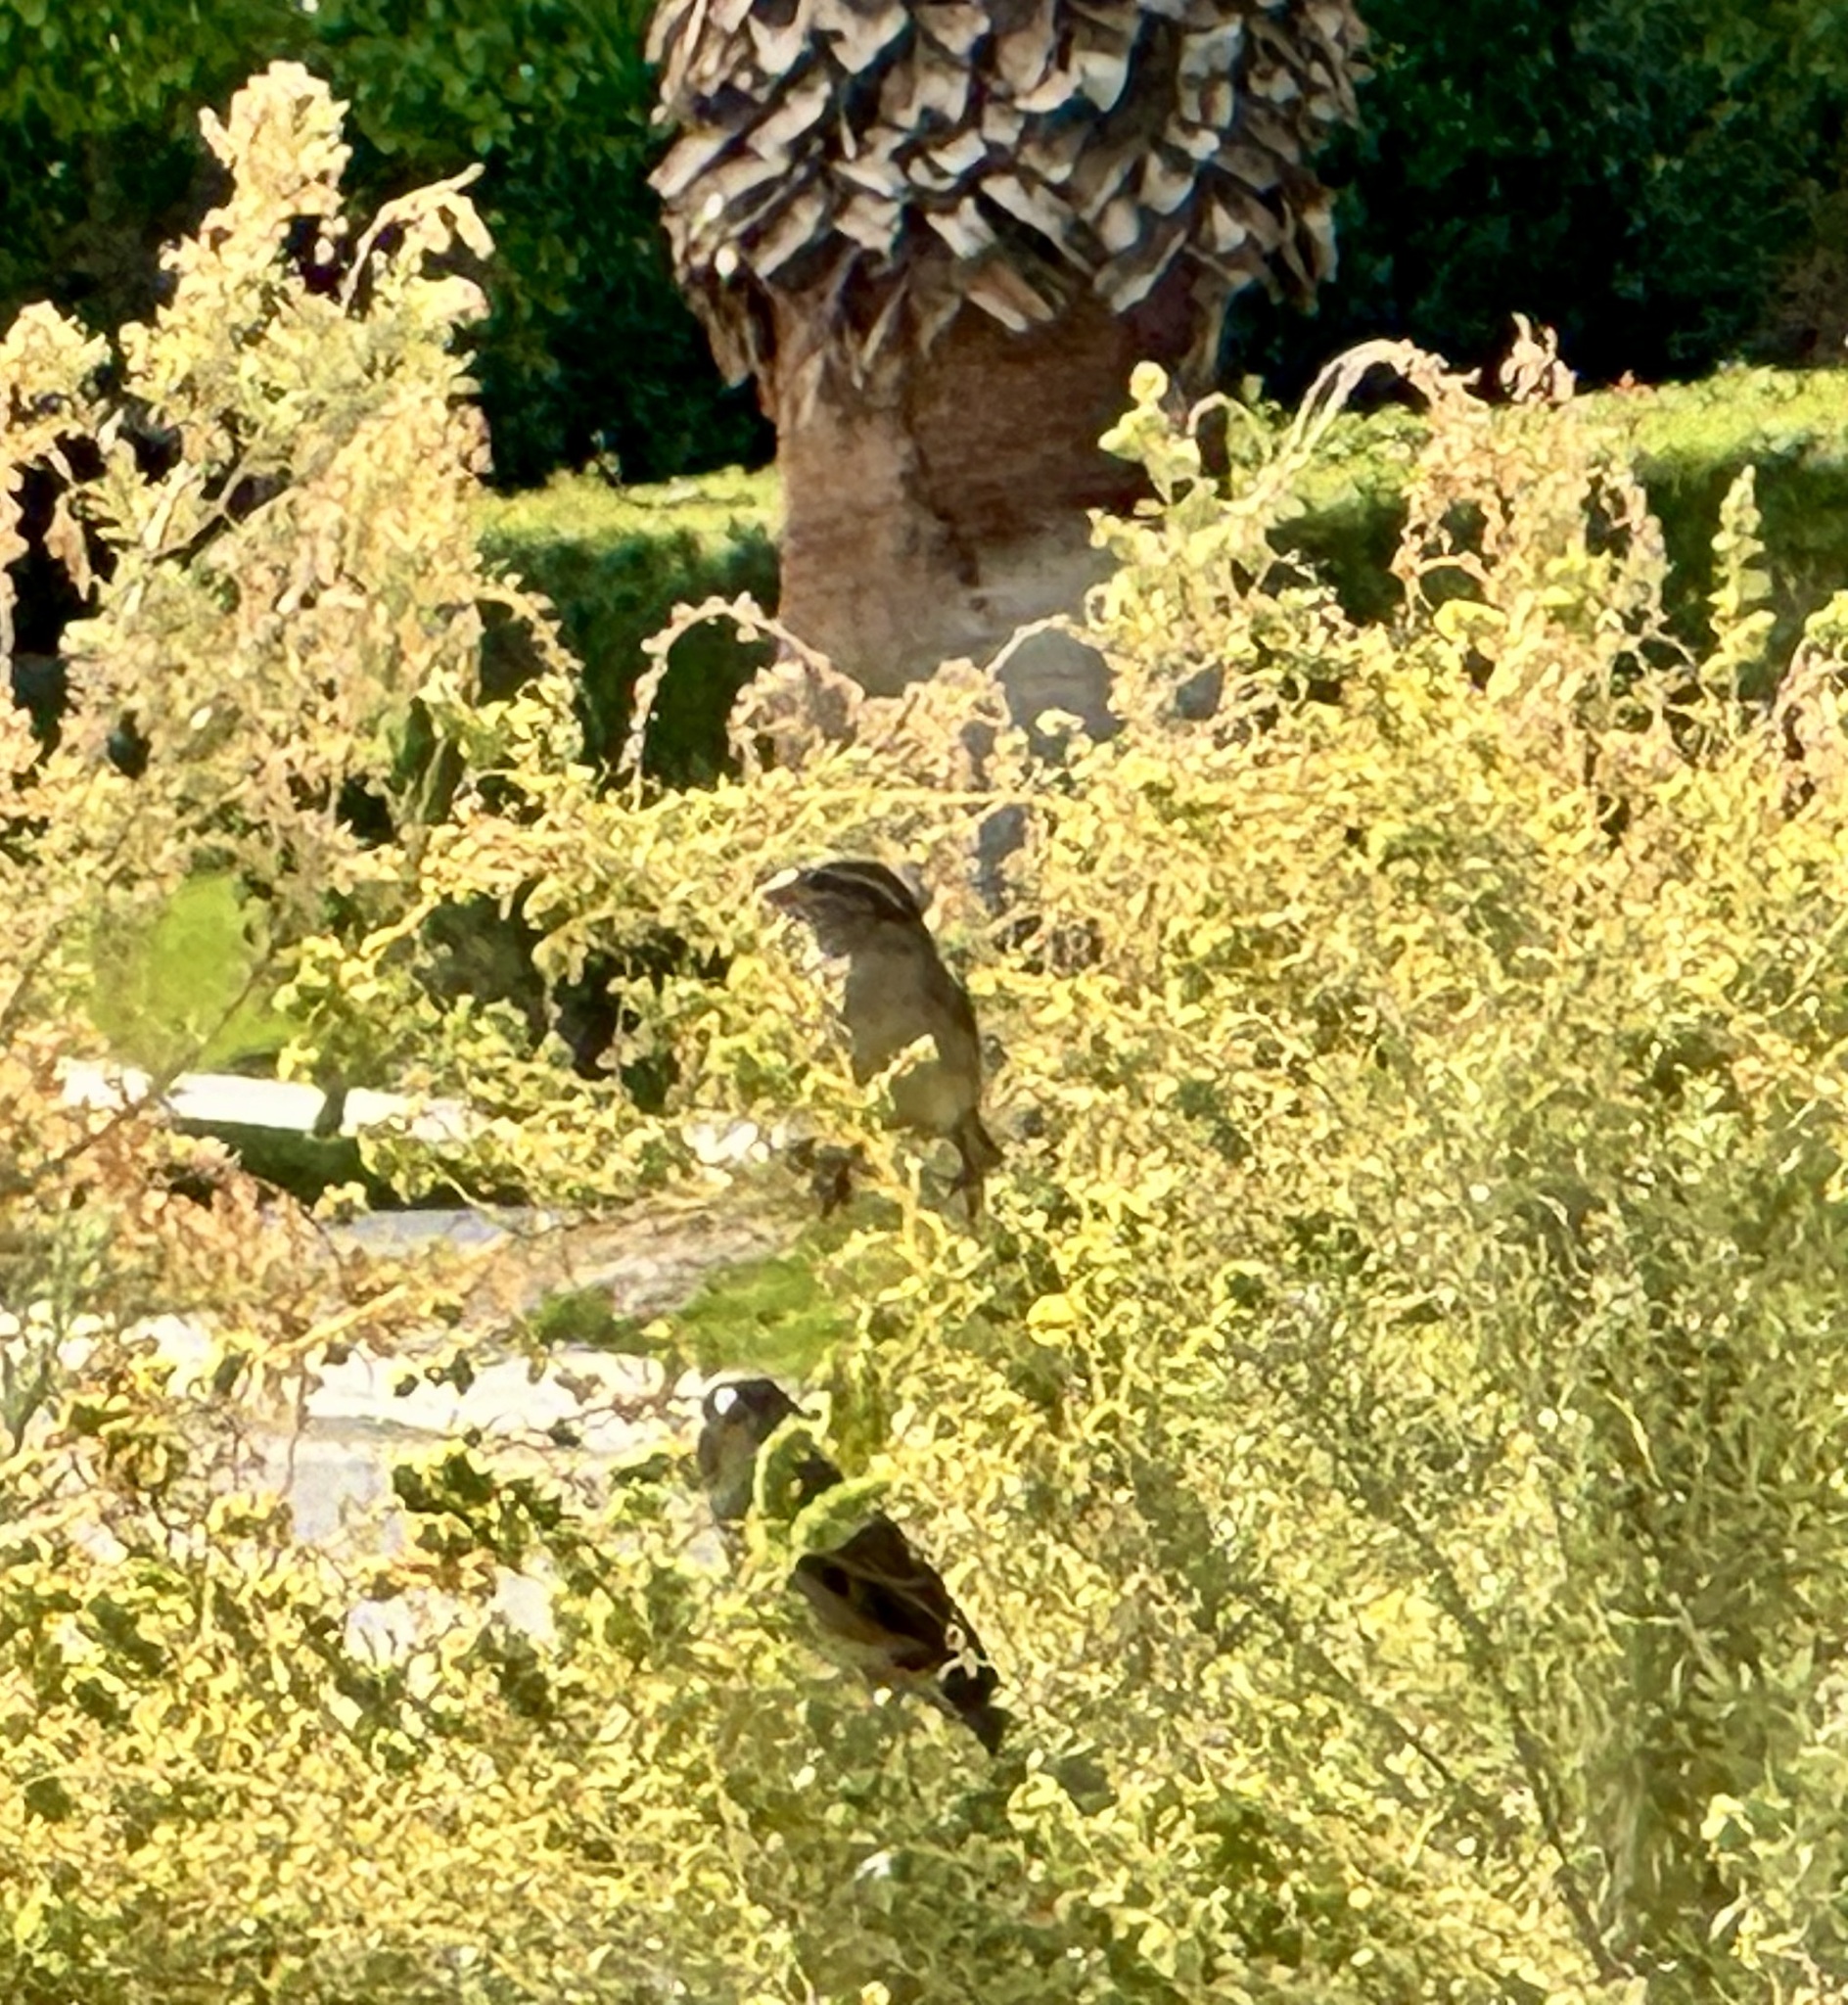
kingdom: Animalia
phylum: Chordata
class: Aves
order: Passeriformes
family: Passerellidae
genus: Zonotrichia
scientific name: Zonotrichia leucophrys
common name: White-crowned sparrow
